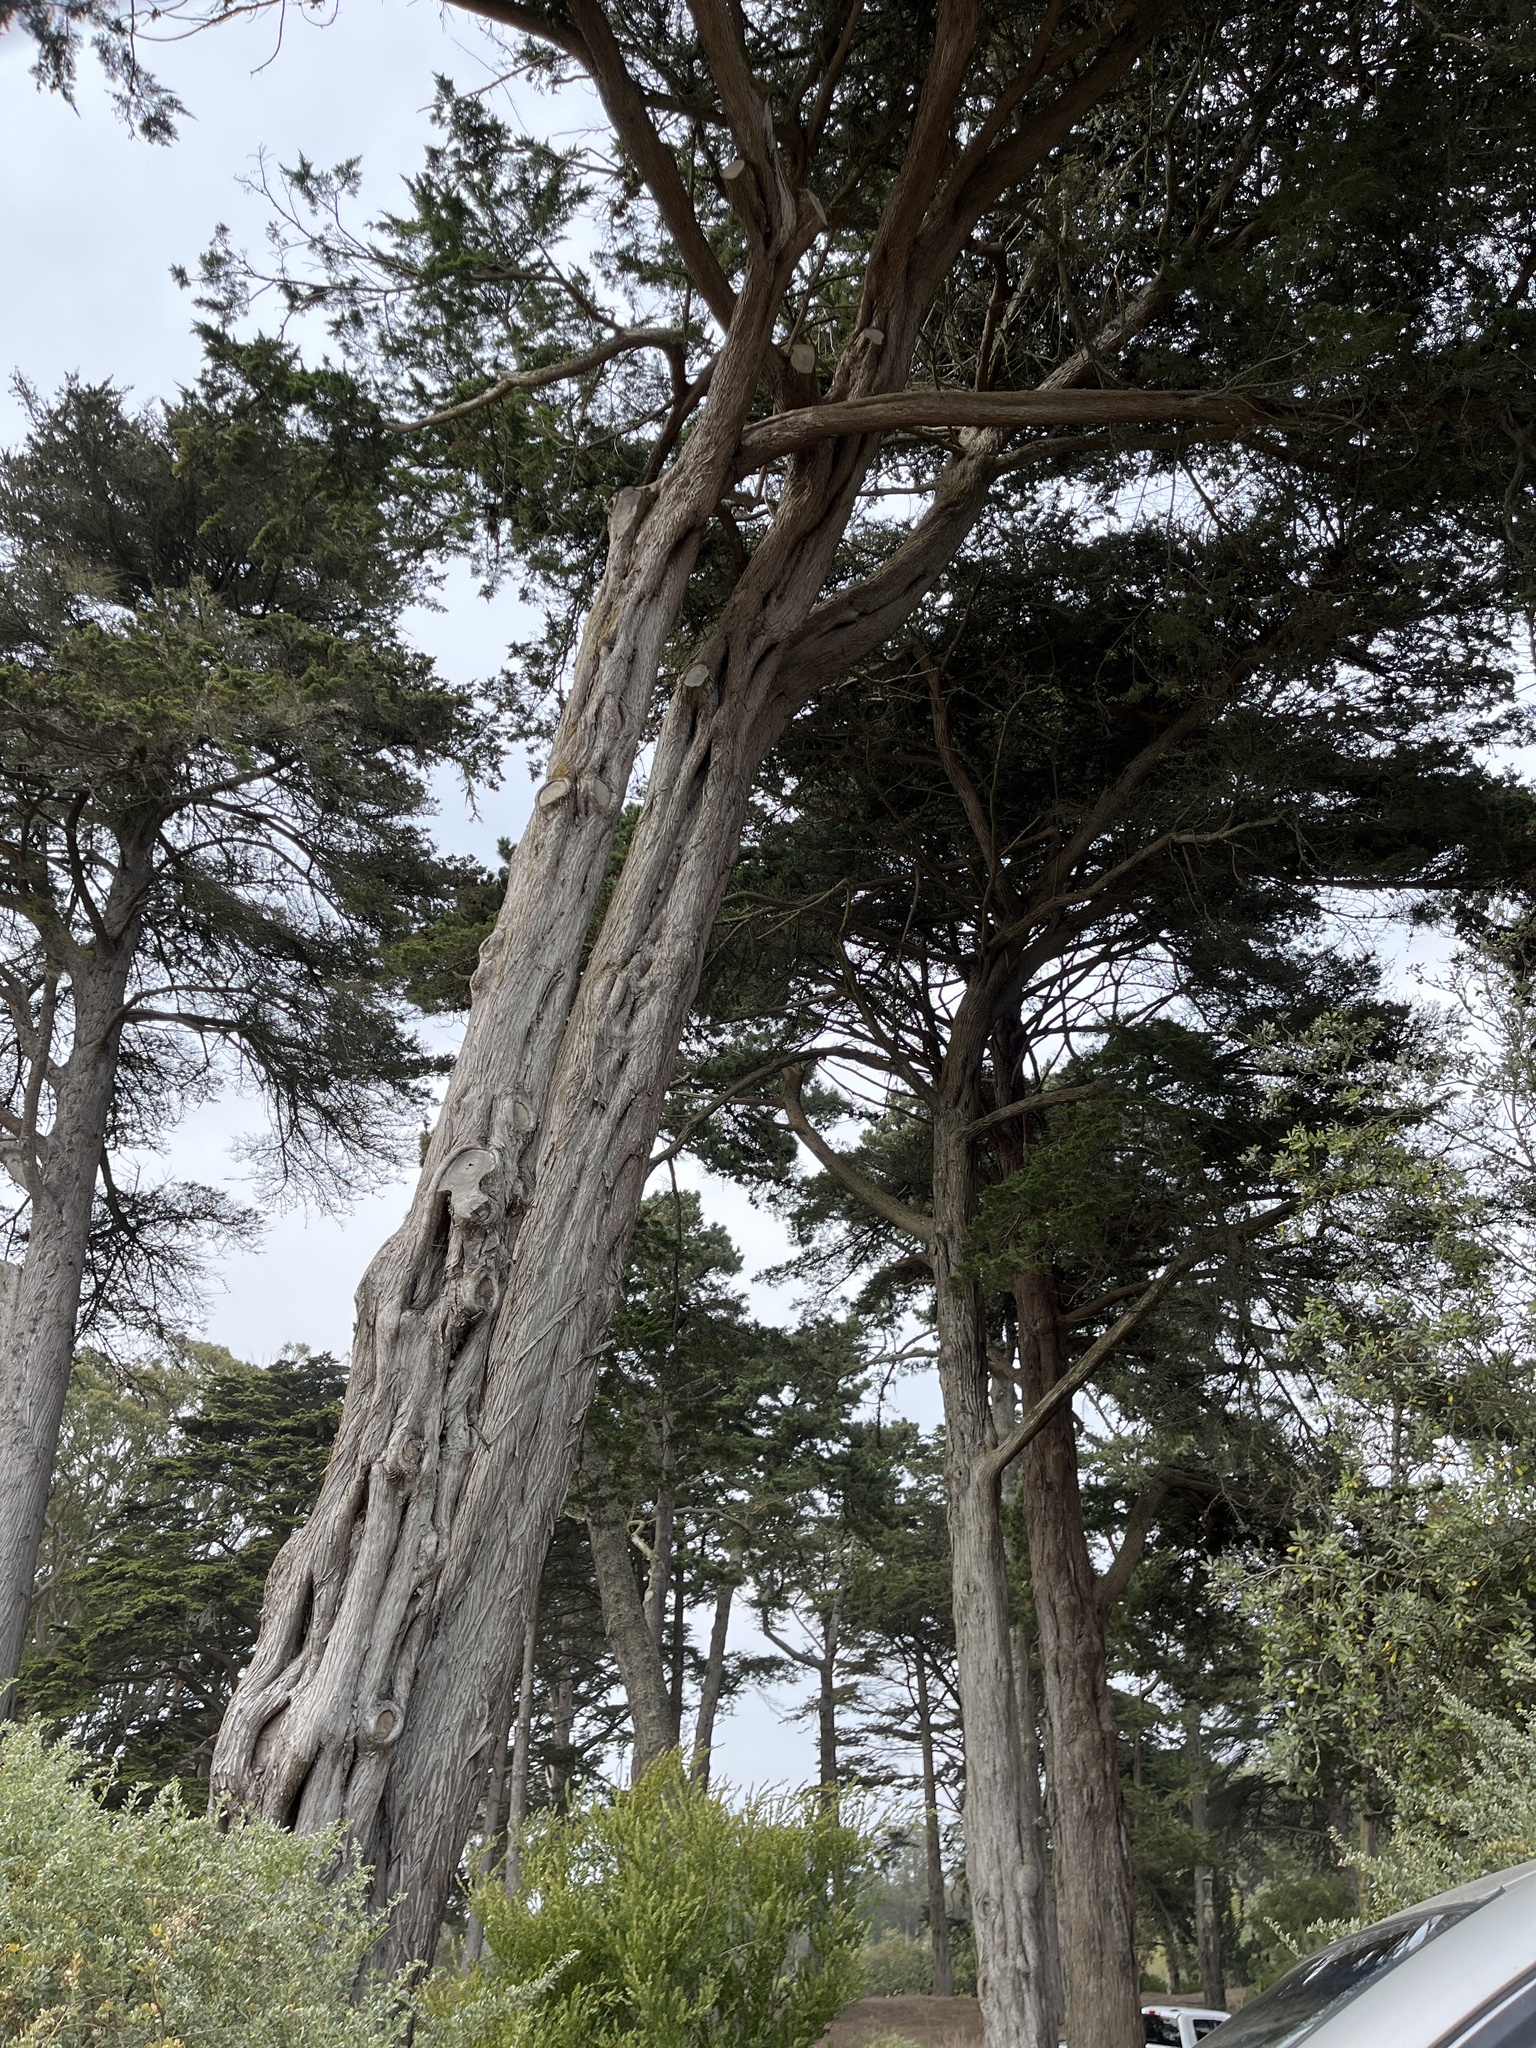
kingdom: Plantae
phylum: Tracheophyta
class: Pinopsida
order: Pinales
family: Cupressaceae
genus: Cupressus
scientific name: Cupressus macrocarpa
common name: Monterey cypress
